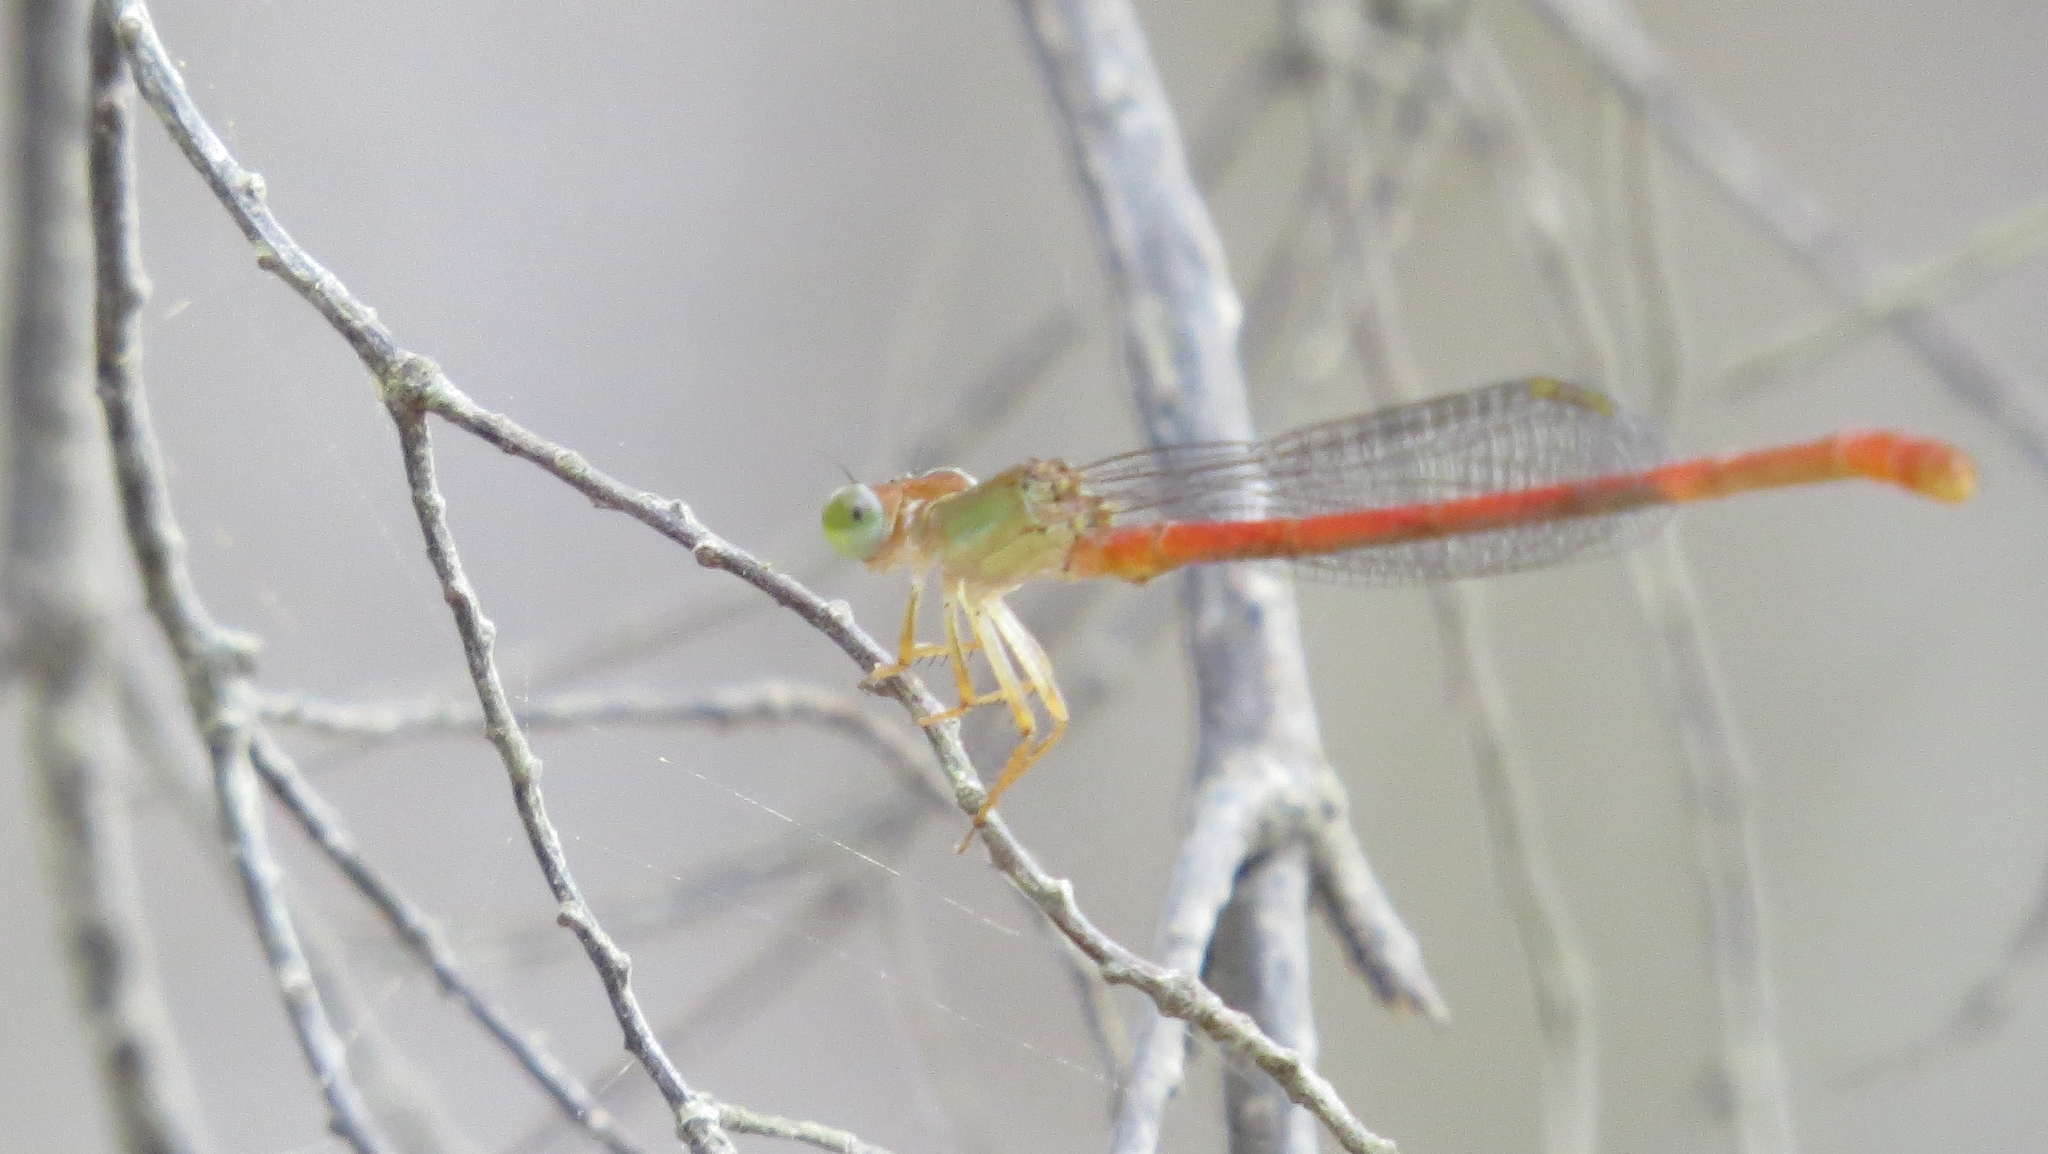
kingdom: Animalia
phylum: Arthropoda
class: Insecta
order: Odonata
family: Coenagrionidae
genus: Ceriagrion
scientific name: Ceriagrion aeruginosum
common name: Redtail
